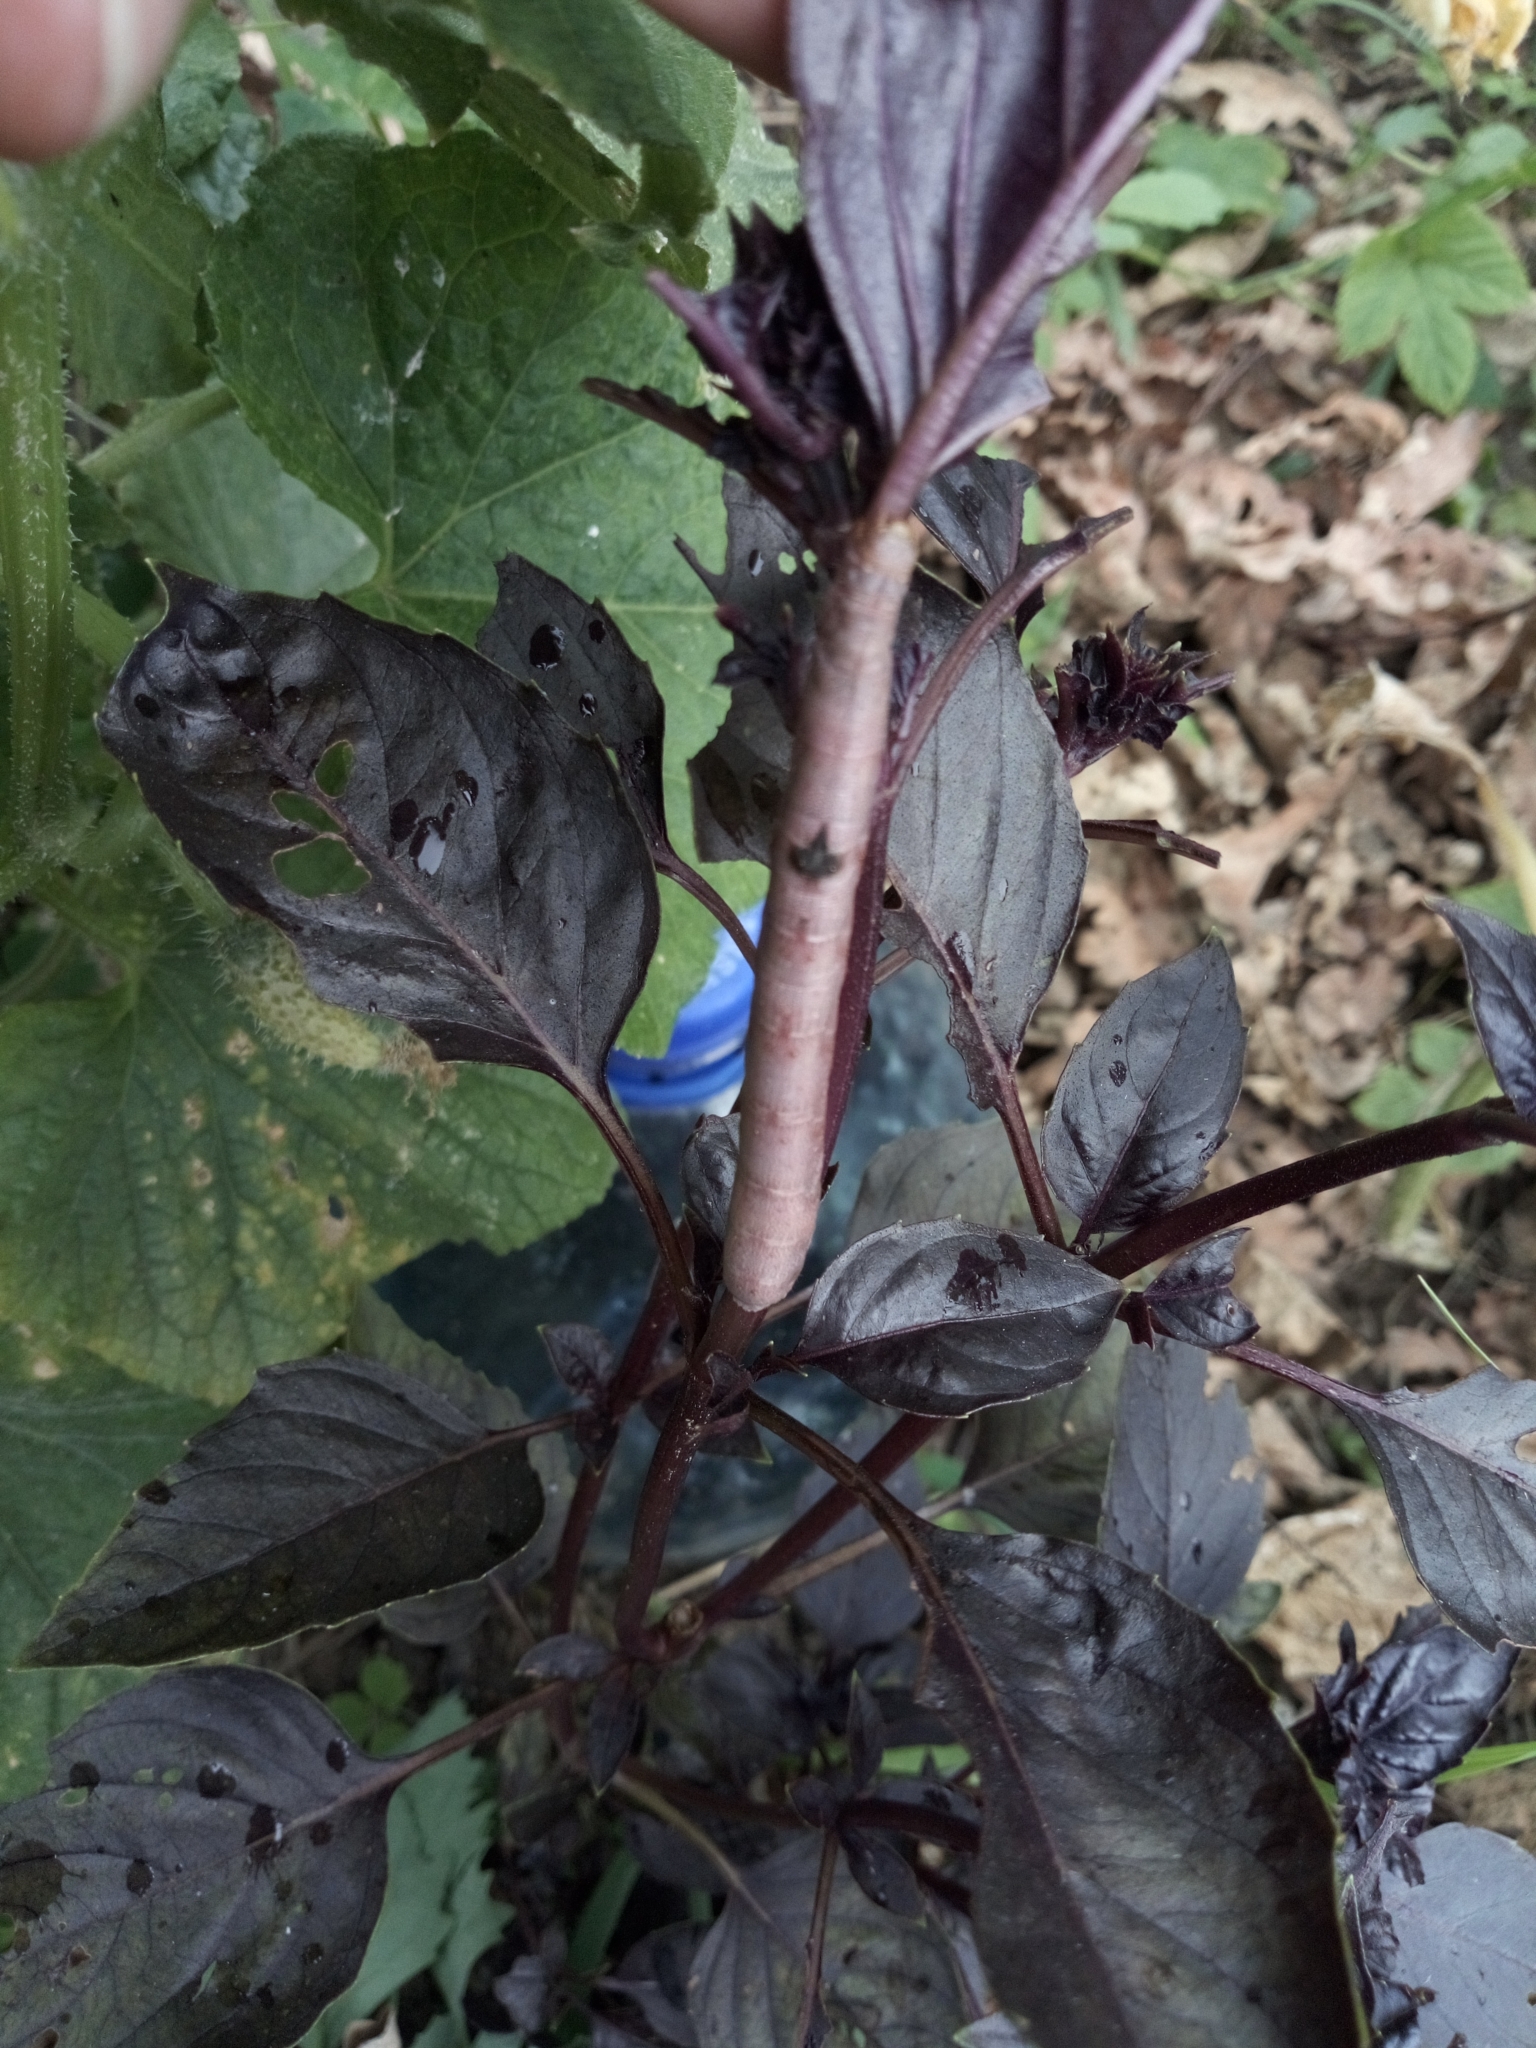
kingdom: Animalia
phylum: Arthropoda
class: Insecta
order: Lepidoptera
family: Geometridae
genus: Ascotis
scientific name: Ascotis selenaria
